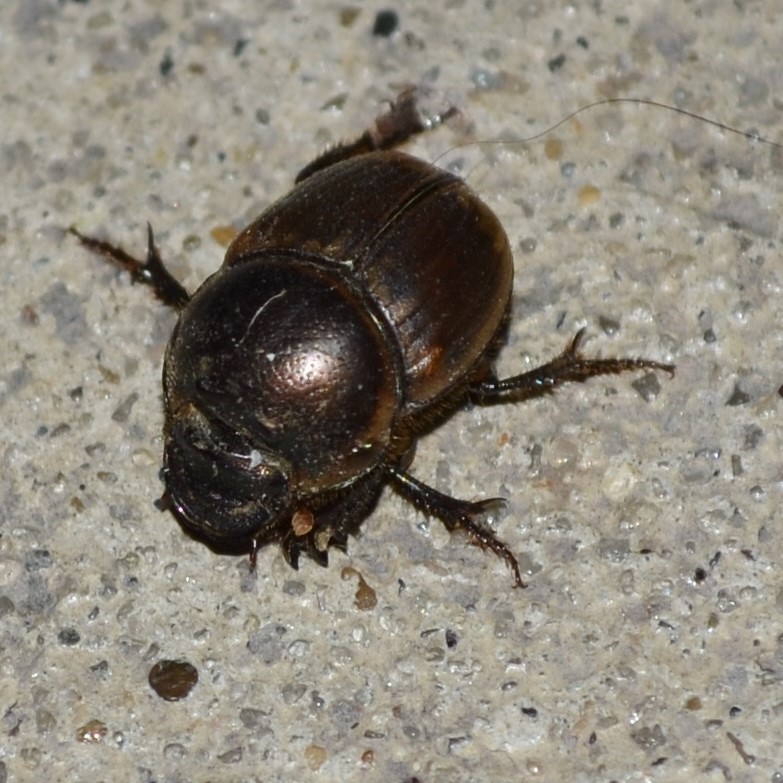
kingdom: Animalia
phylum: Arthropoda
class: Insecta
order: Coleoptera
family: Scarabaeidae
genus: Digitonthophagus
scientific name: Digitonthophagus gazella
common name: Brown dung beetle
